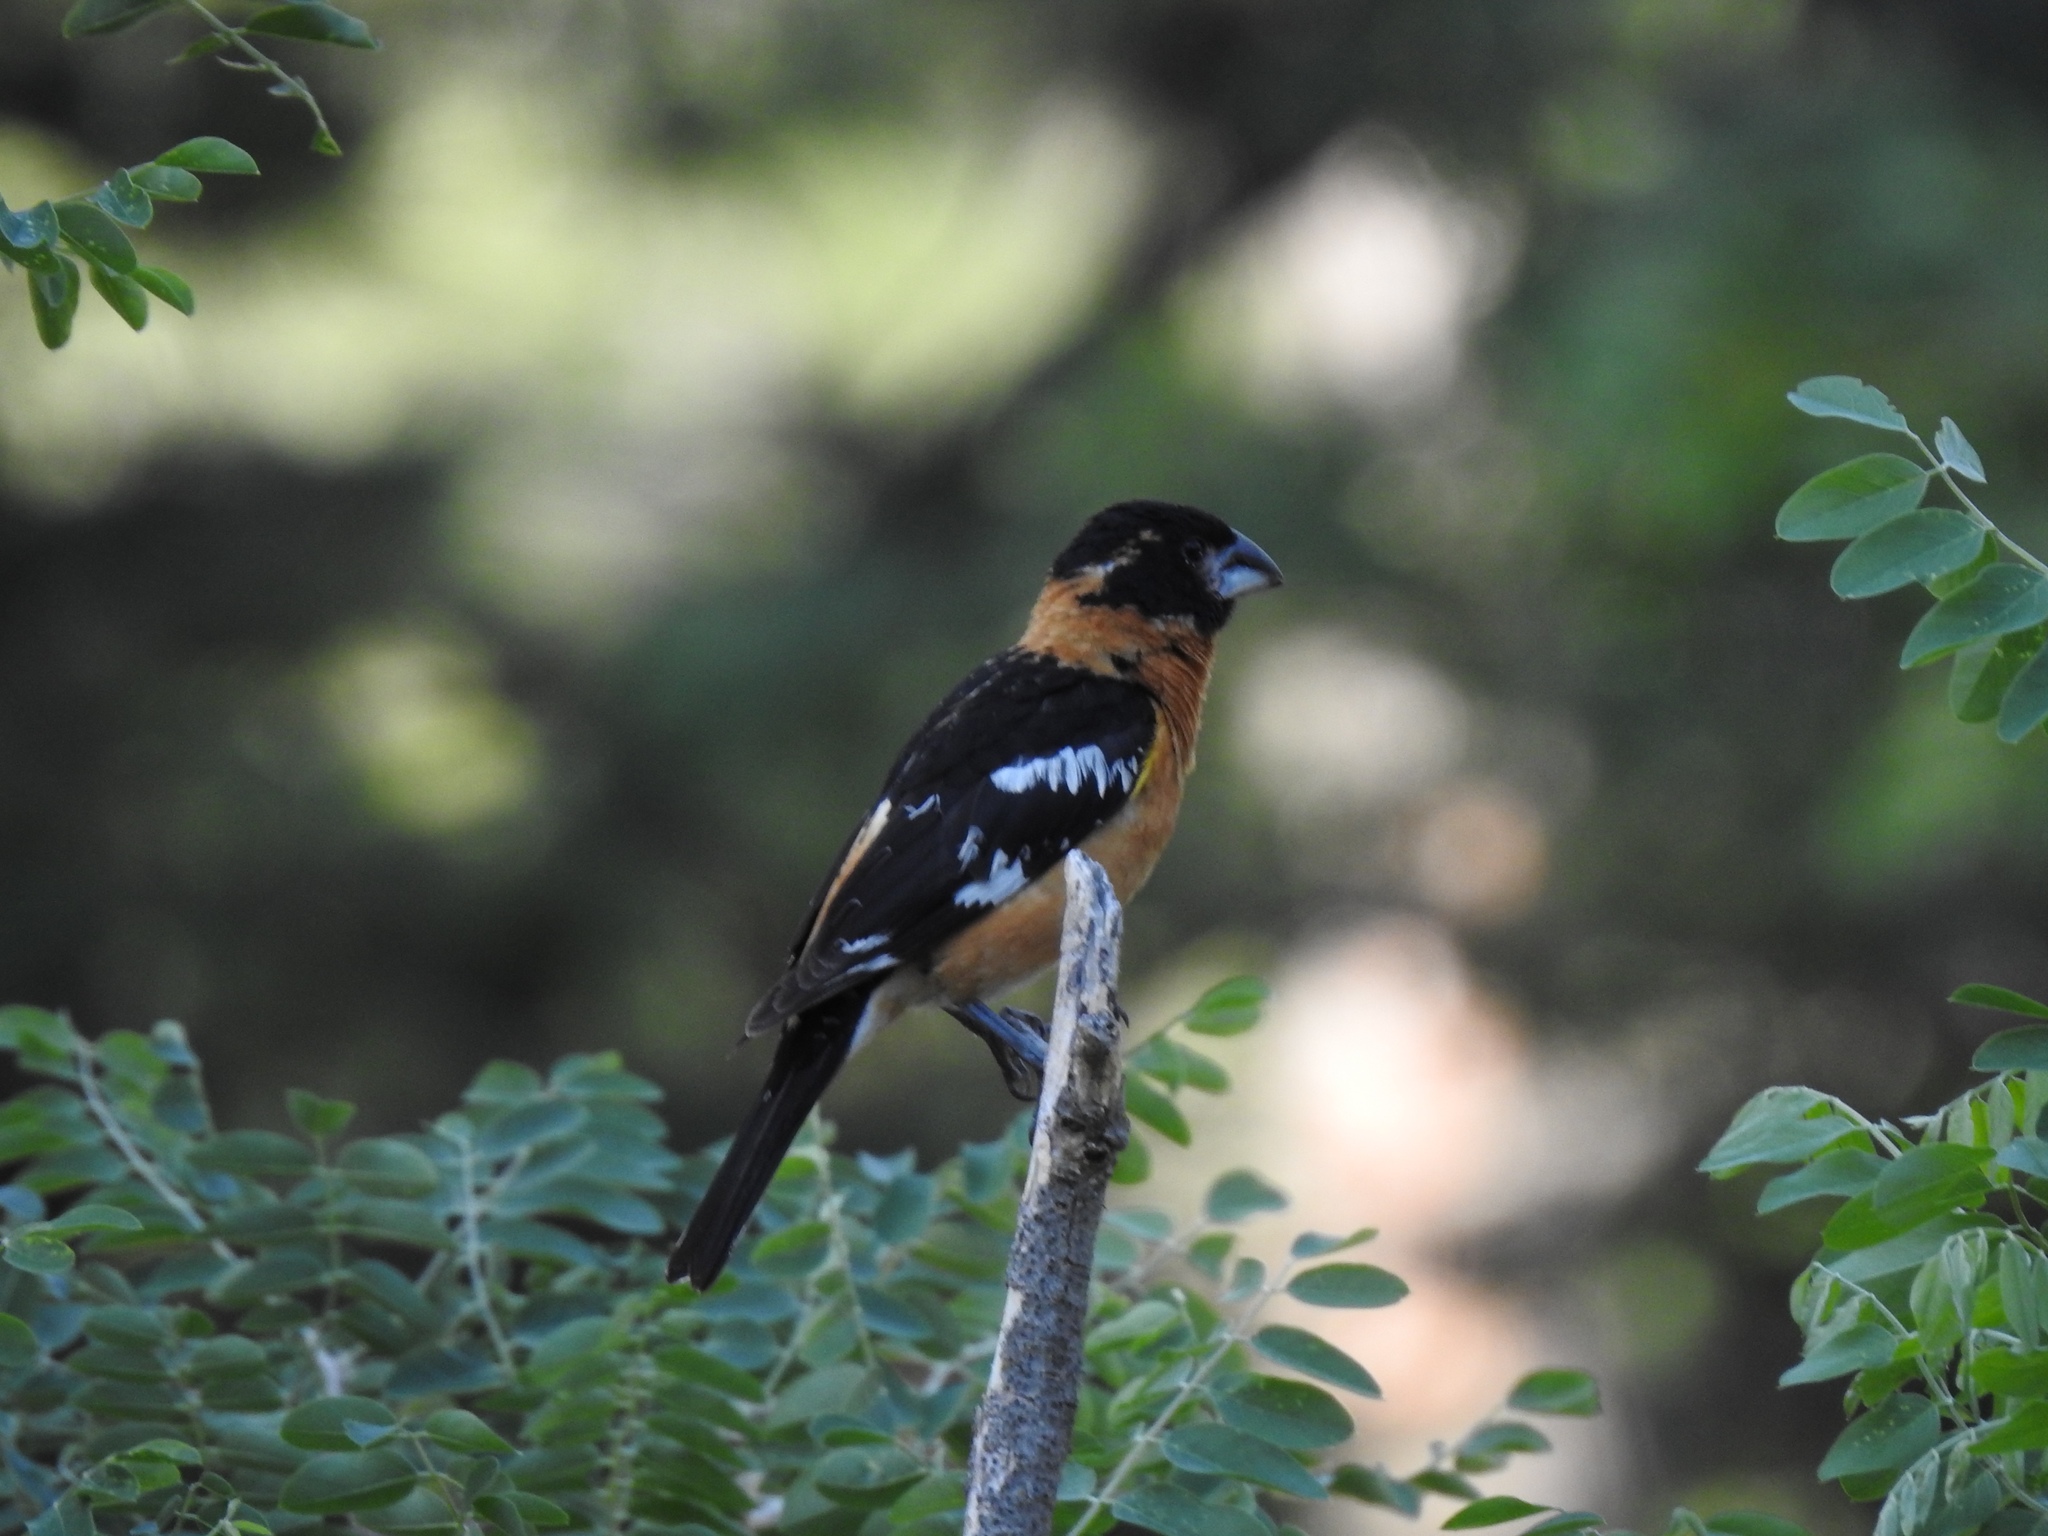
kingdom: Animalia
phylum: Chordata
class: Aves
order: Passeriformes
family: Cardinalidae
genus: Pheucticus
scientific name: Pheucticus melanocephalus
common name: Black-headed grosbeak
